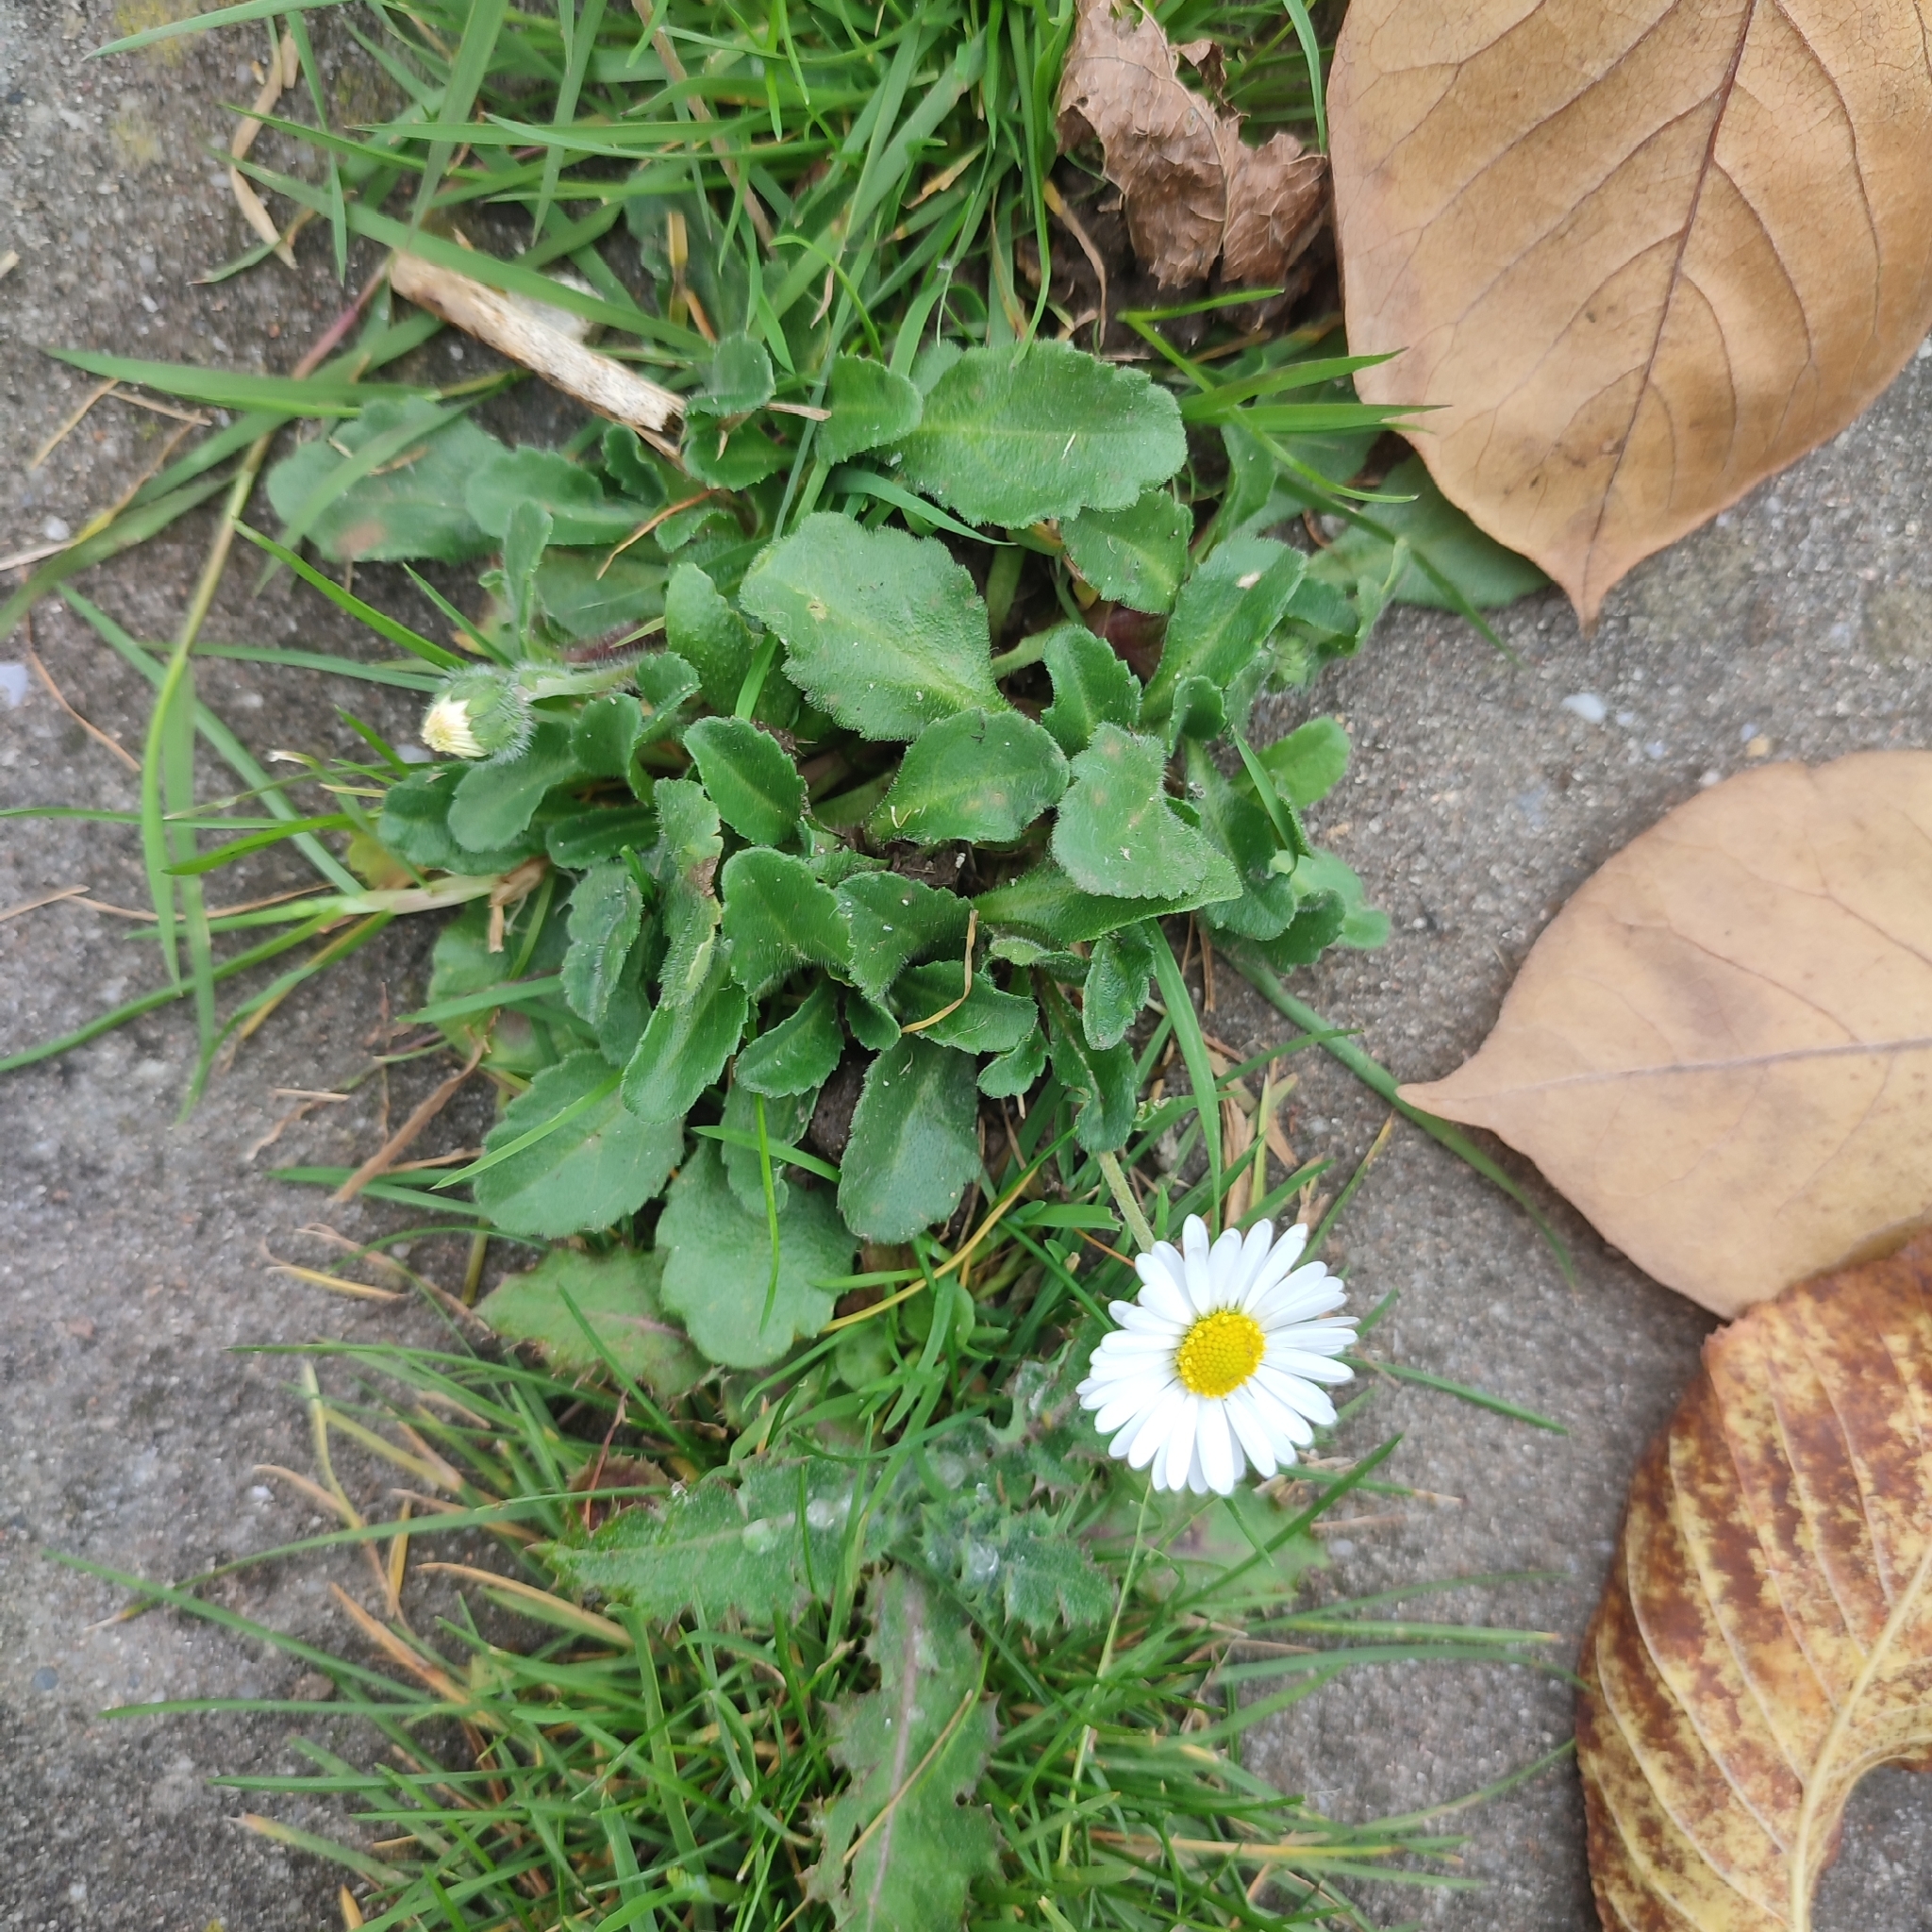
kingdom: Plantae
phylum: Tracheophyta
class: Magnoliopsida
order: Asterales
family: Asteraceae
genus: Bellis
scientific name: Bellis perennis
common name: Lawndaisy
